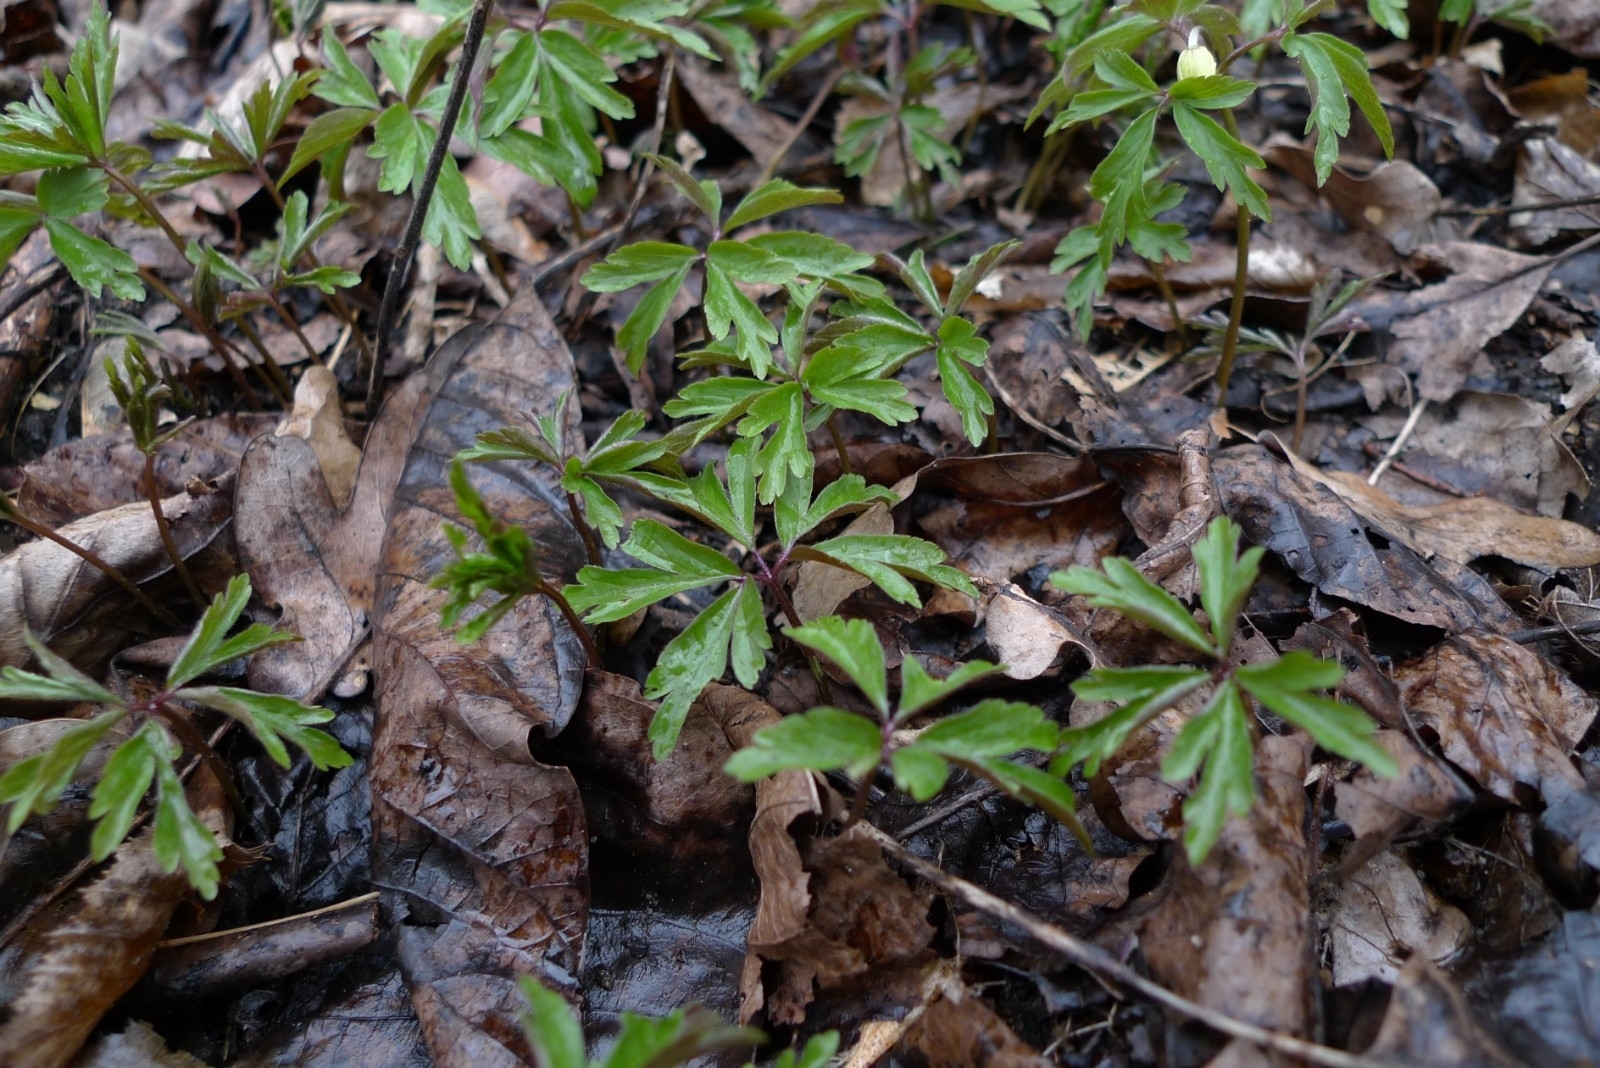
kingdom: Plantae
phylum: Tracheophyta
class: Magnoliopsida
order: Ranunculales
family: Ranunculaceae
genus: Anemone
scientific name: Anemone nemorosa
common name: Wood anemone
